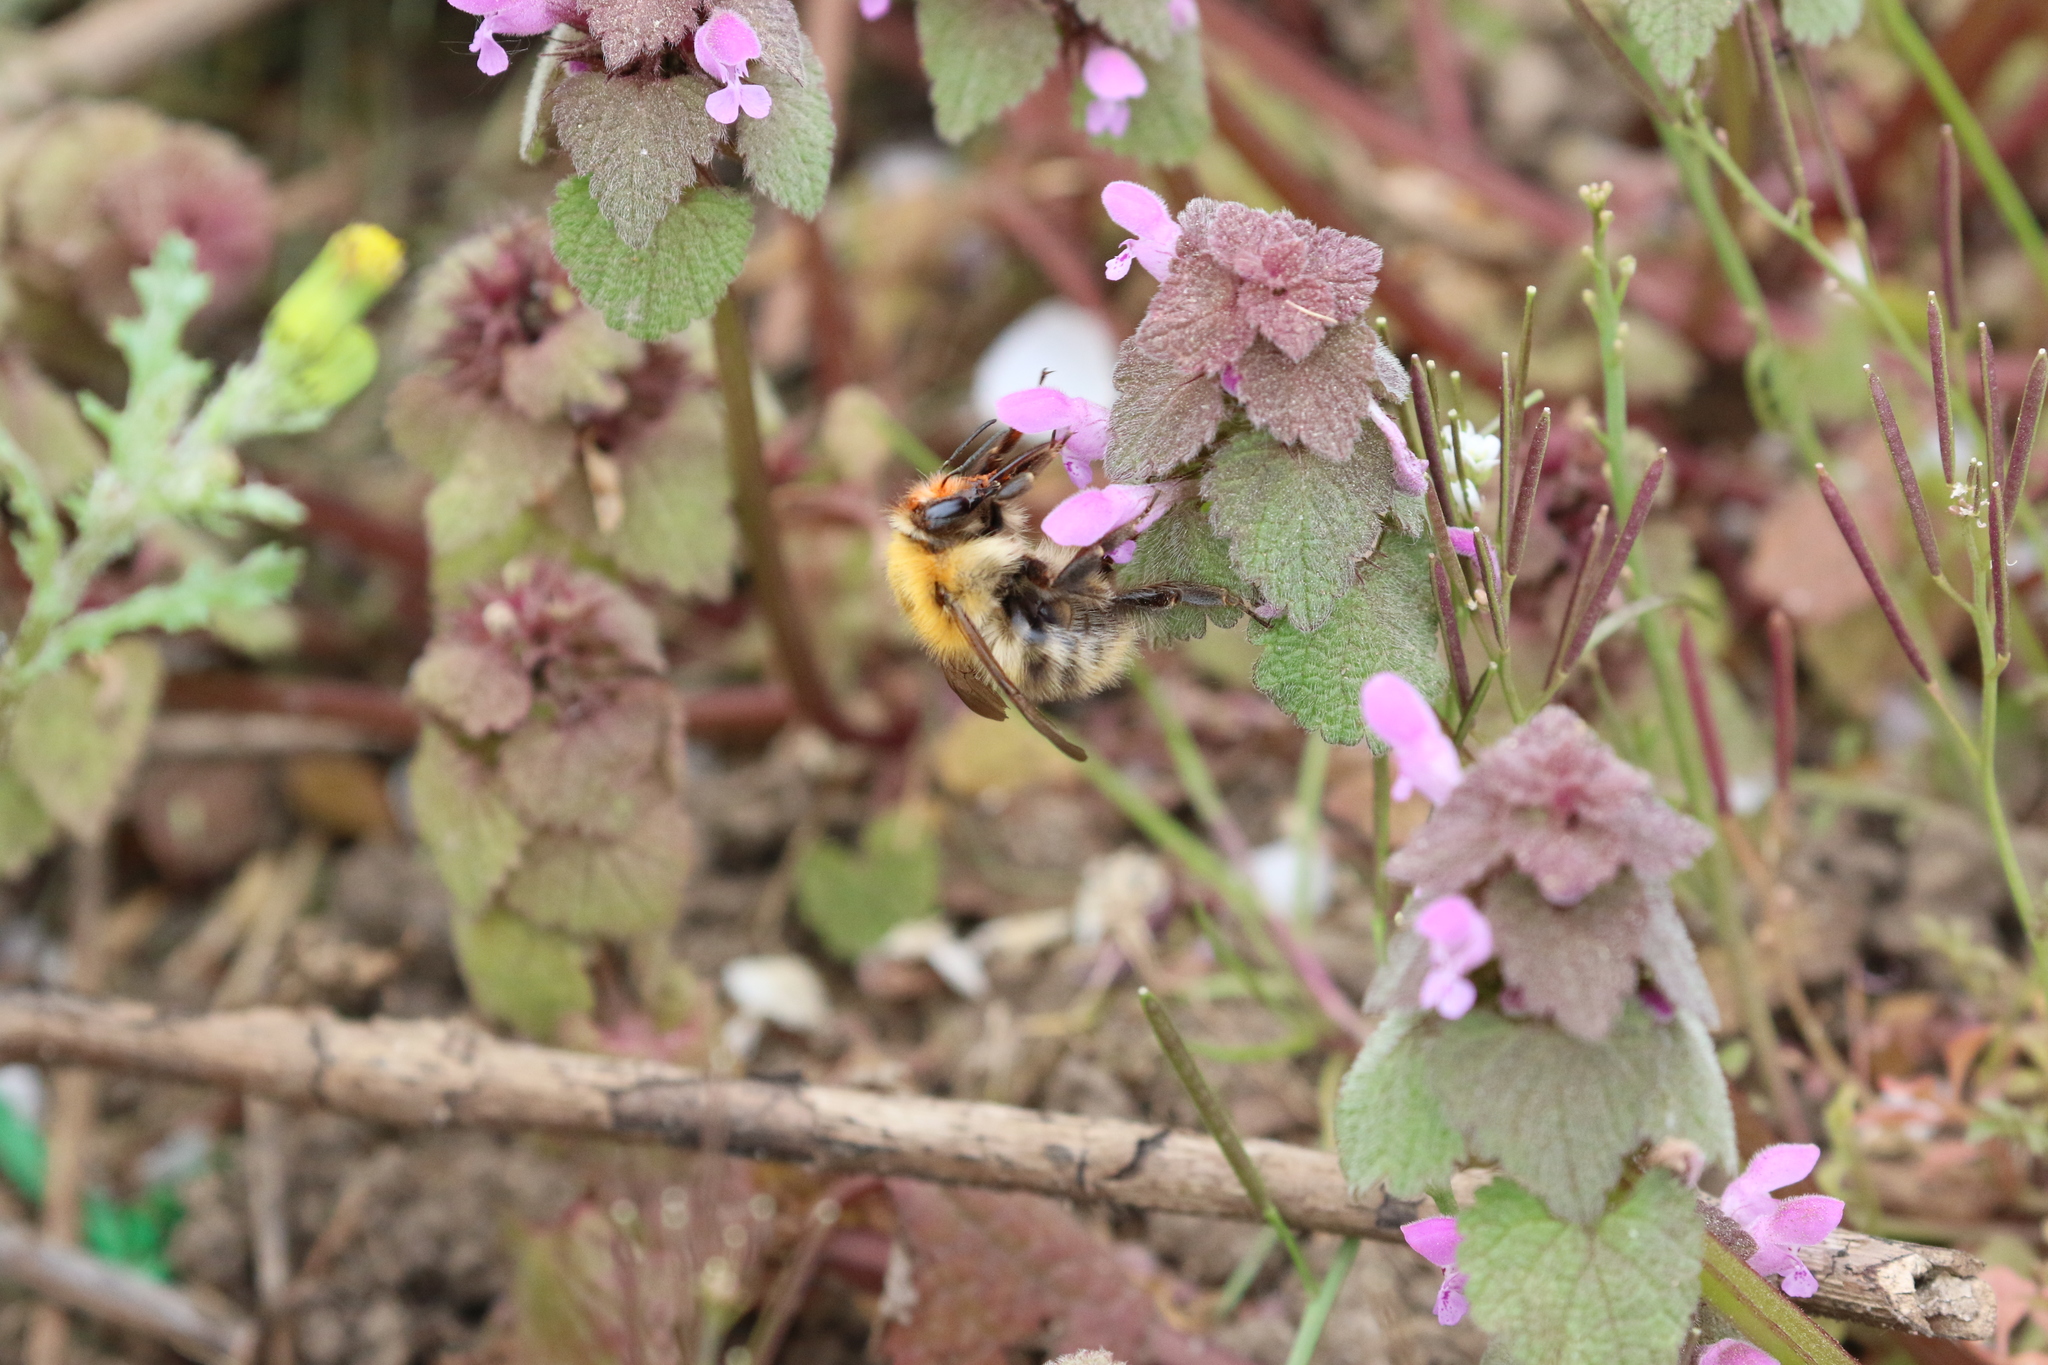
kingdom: Animalia
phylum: Arthropoda
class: Insecta
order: Hymenoptera
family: Apidae
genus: Bombus
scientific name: Bombus pascuorum
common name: Common carder bee
